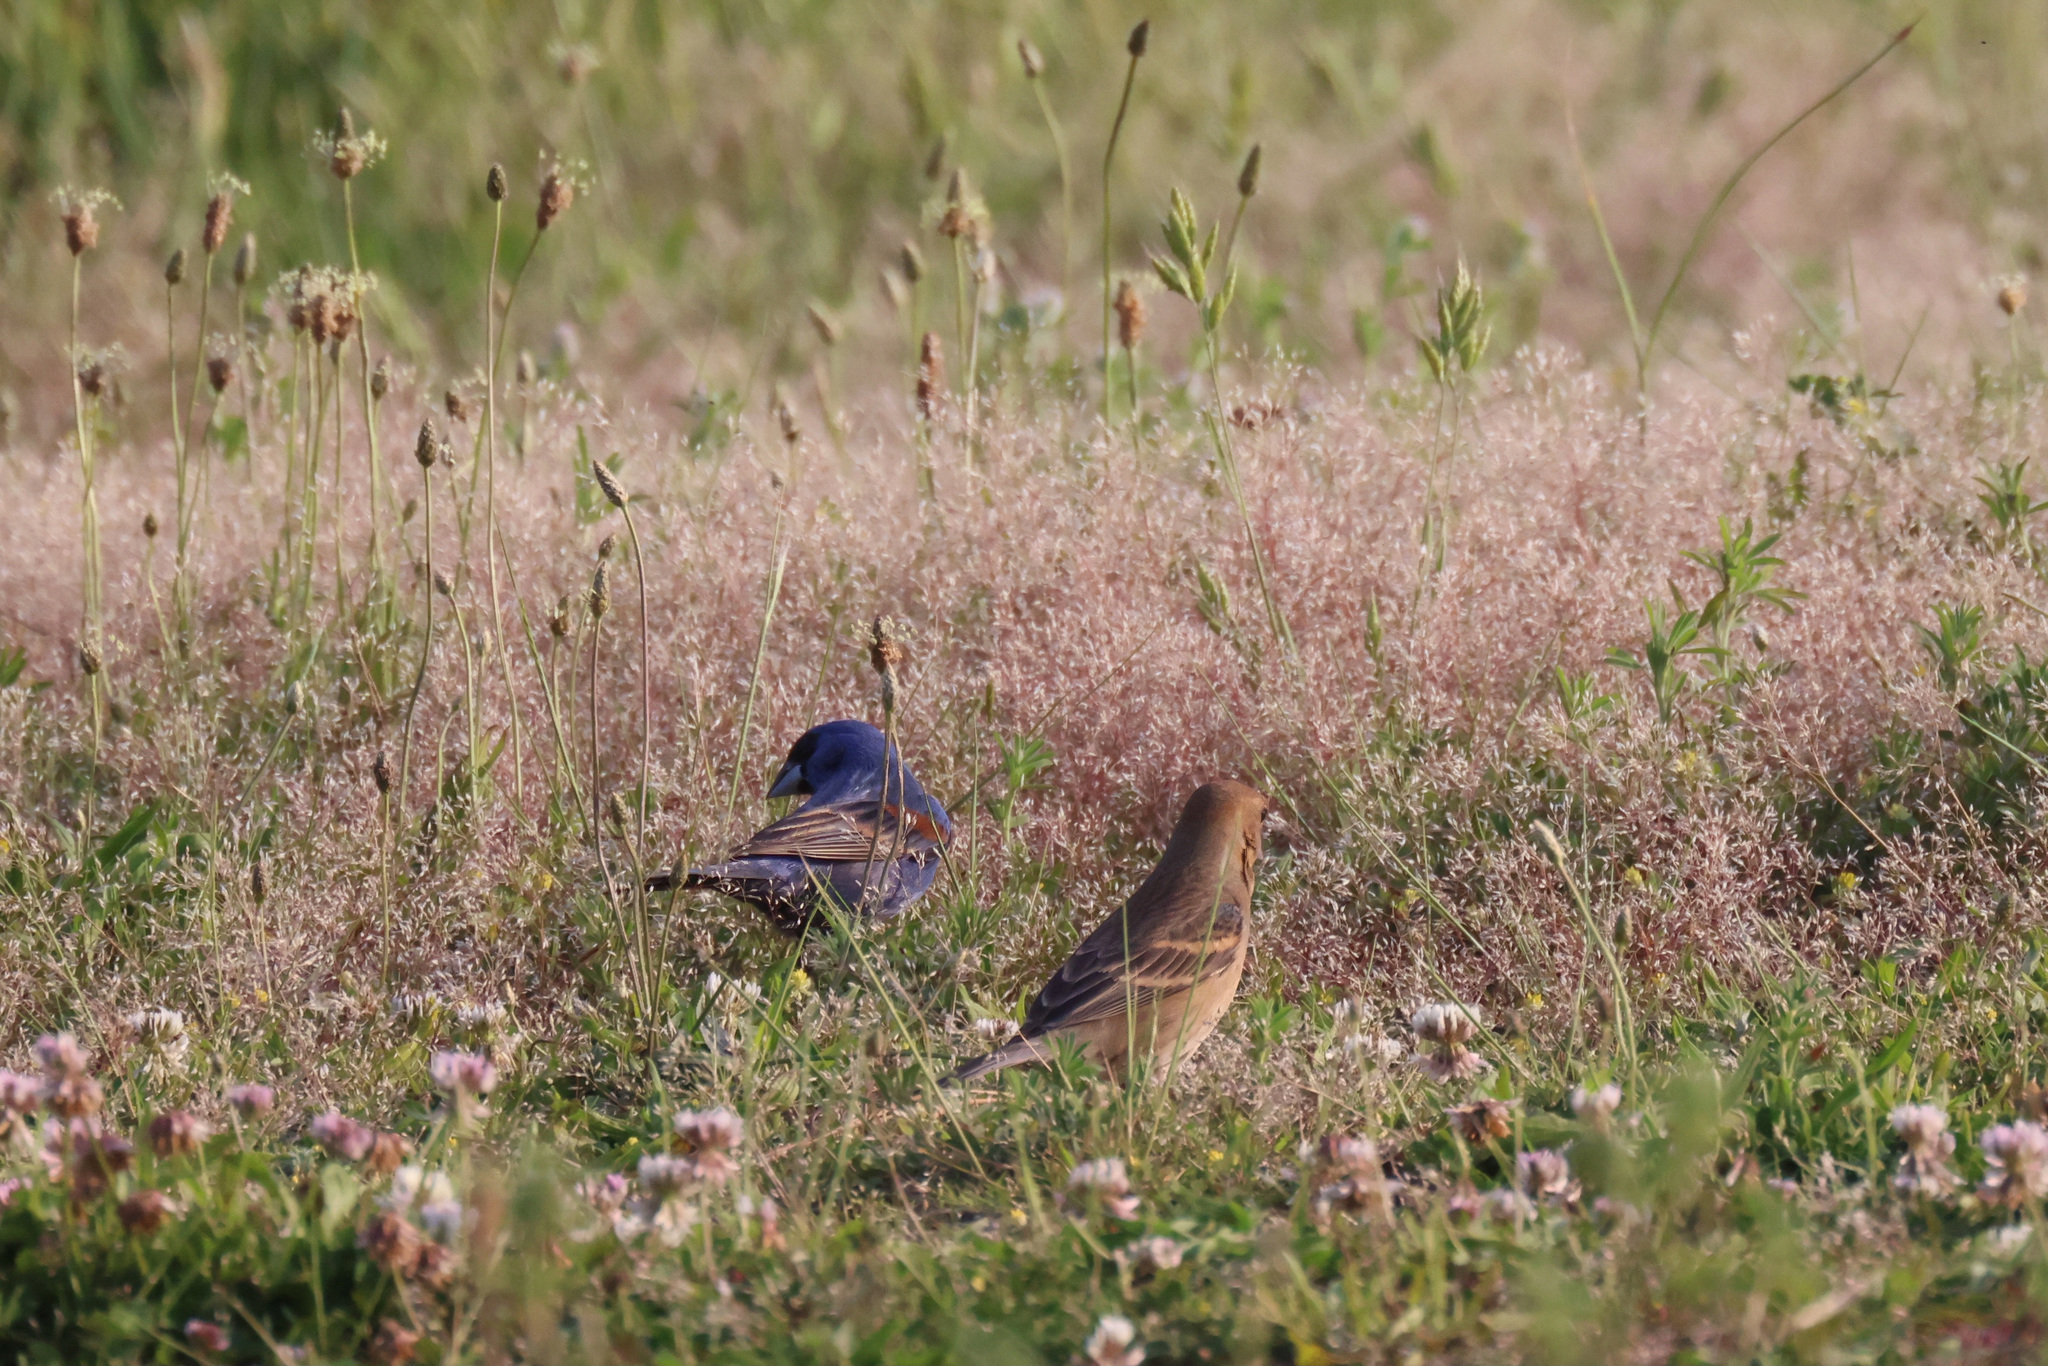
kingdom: Animalia
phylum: Chordata
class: Aves
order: Passeriformes
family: Cardinalidae
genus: Passerina
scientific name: Passerina caerulea
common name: Blue grosbeak
